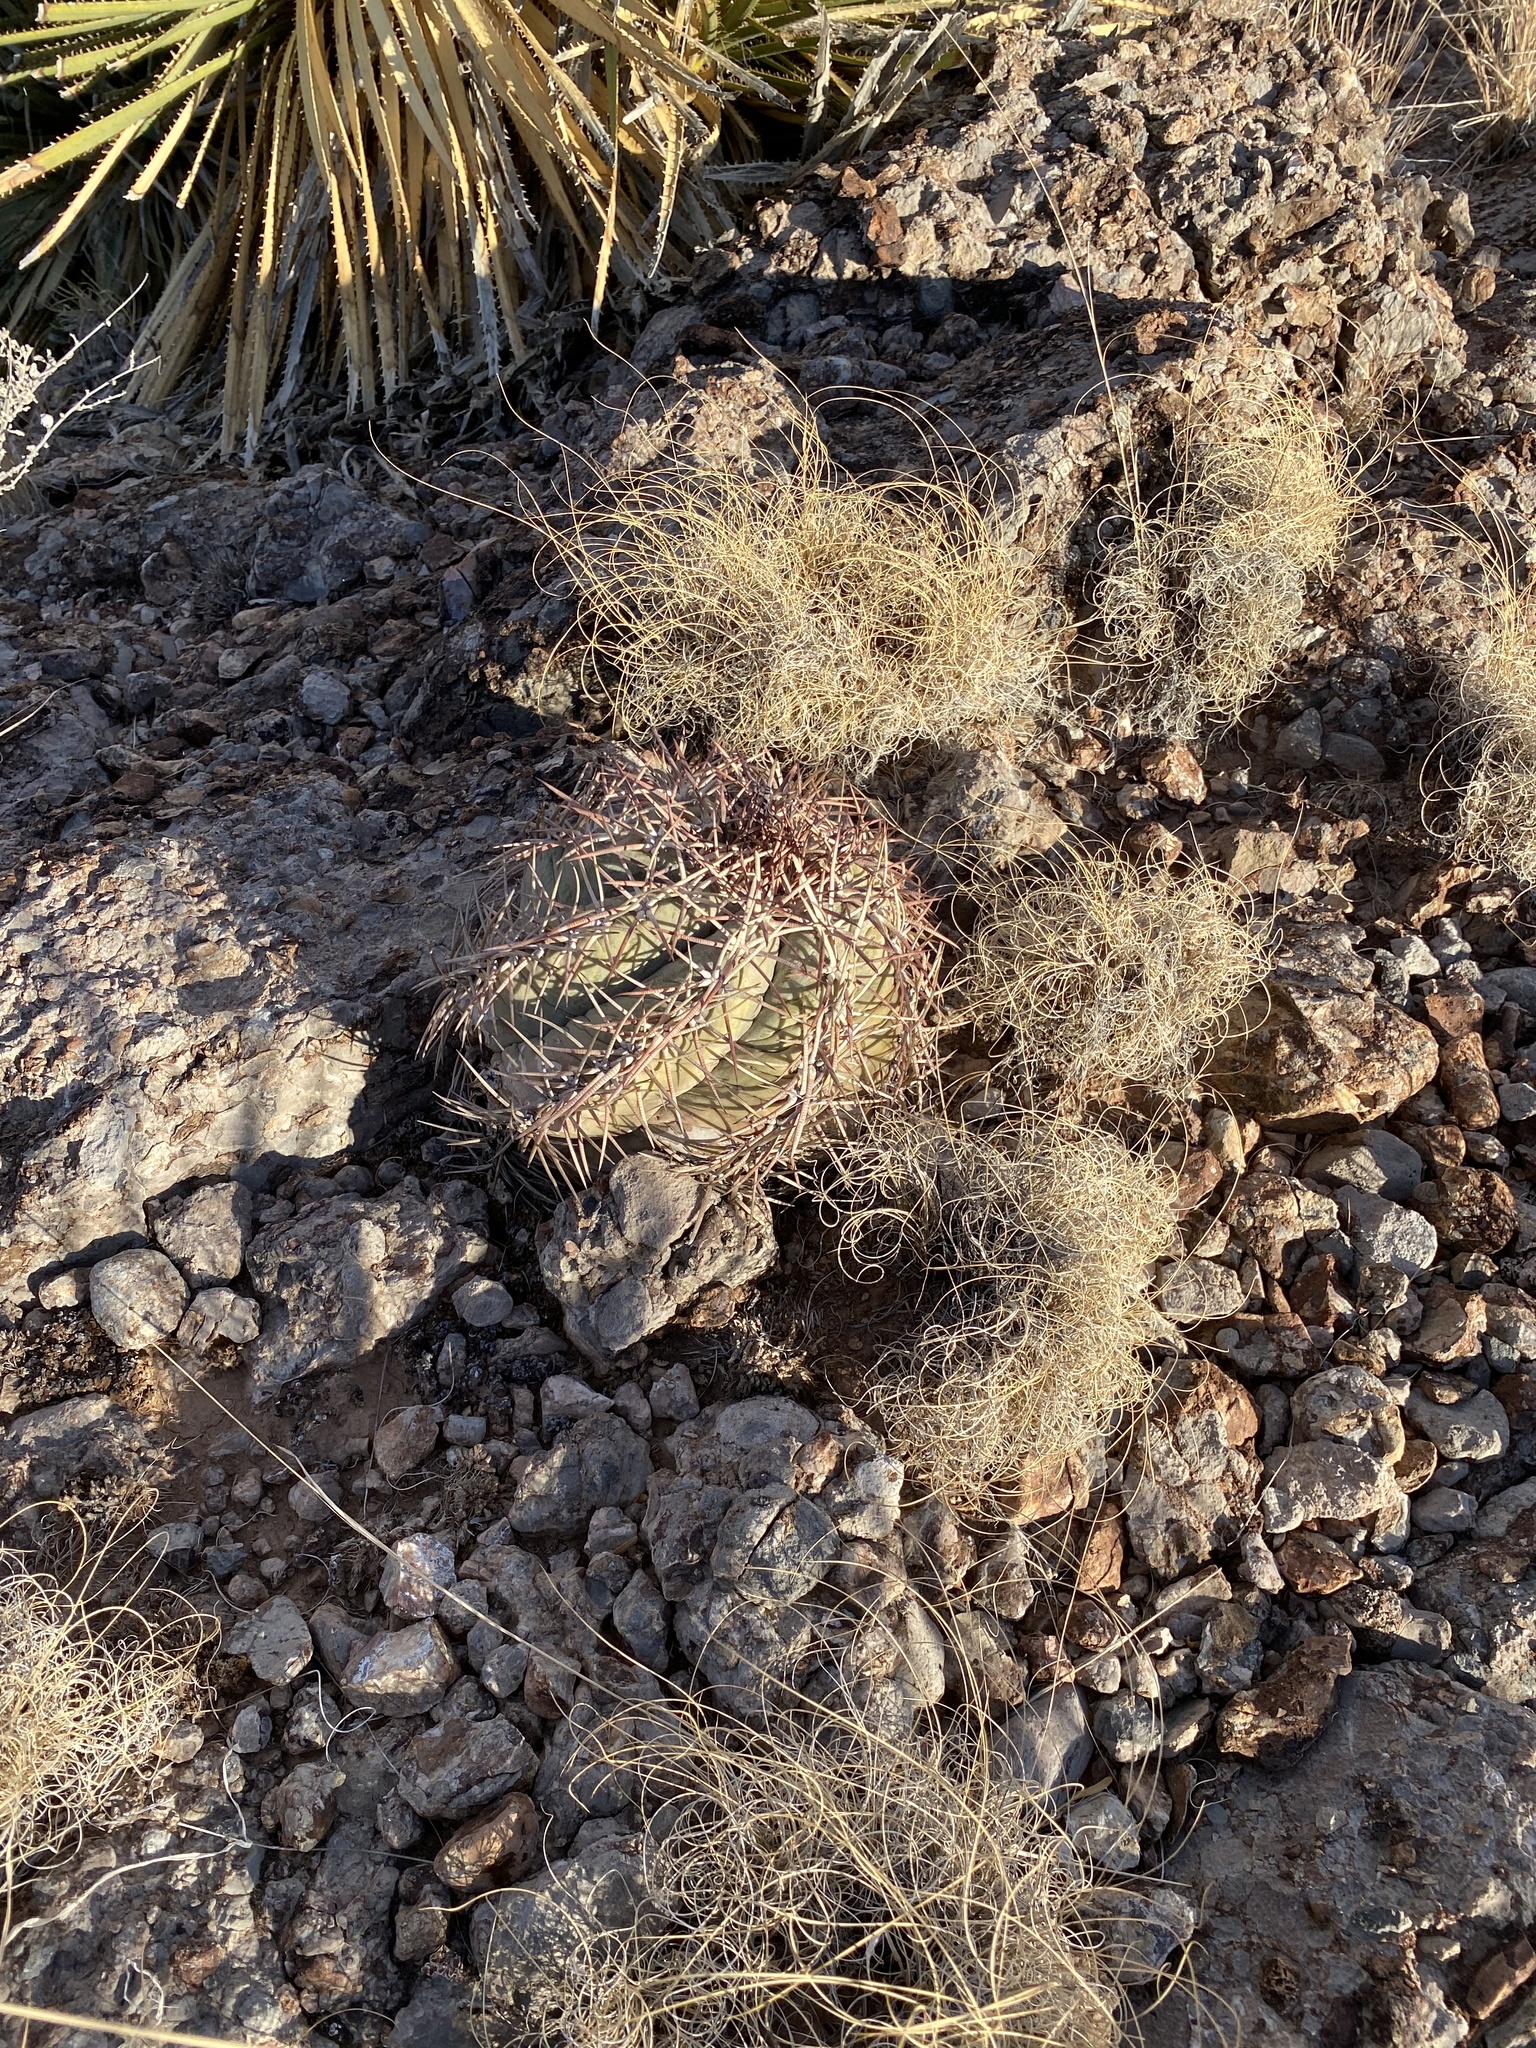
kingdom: Plantae
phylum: Tracheophyta
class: Magnoliopsida
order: Caryophyllales
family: Cactaceae
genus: Echinocactus
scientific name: Echinocactus horizonthalonius
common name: Devilshead
